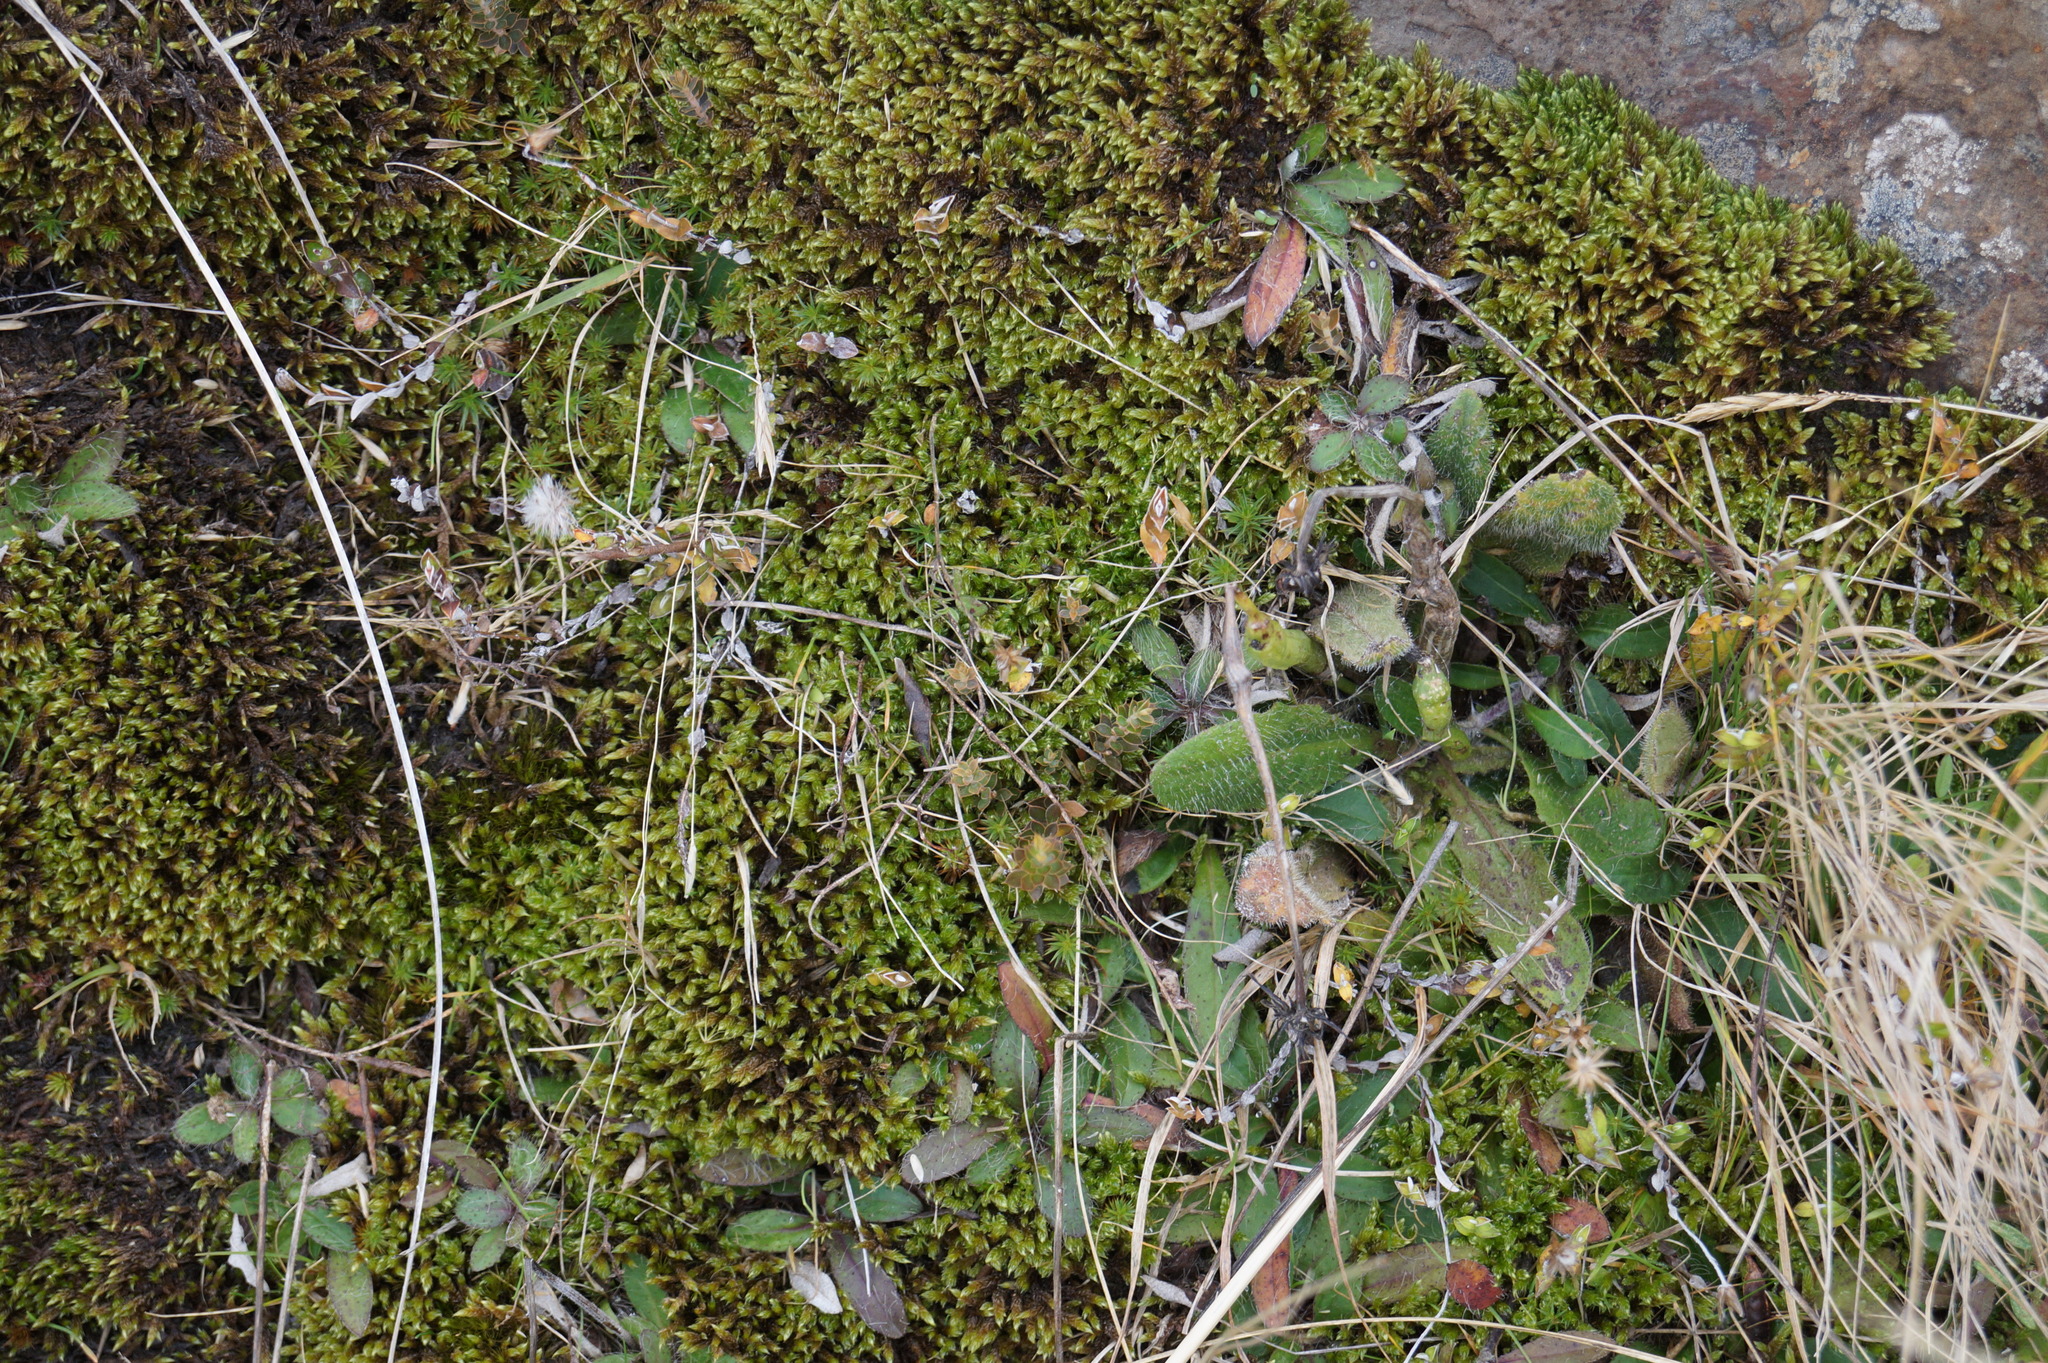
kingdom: Plantae
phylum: Tracheophyta
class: Magnoliopsida
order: Asterales
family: Asteraceae
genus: Pilosella
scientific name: Pilosella officinarum
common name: Mouse-ear hawkweed
